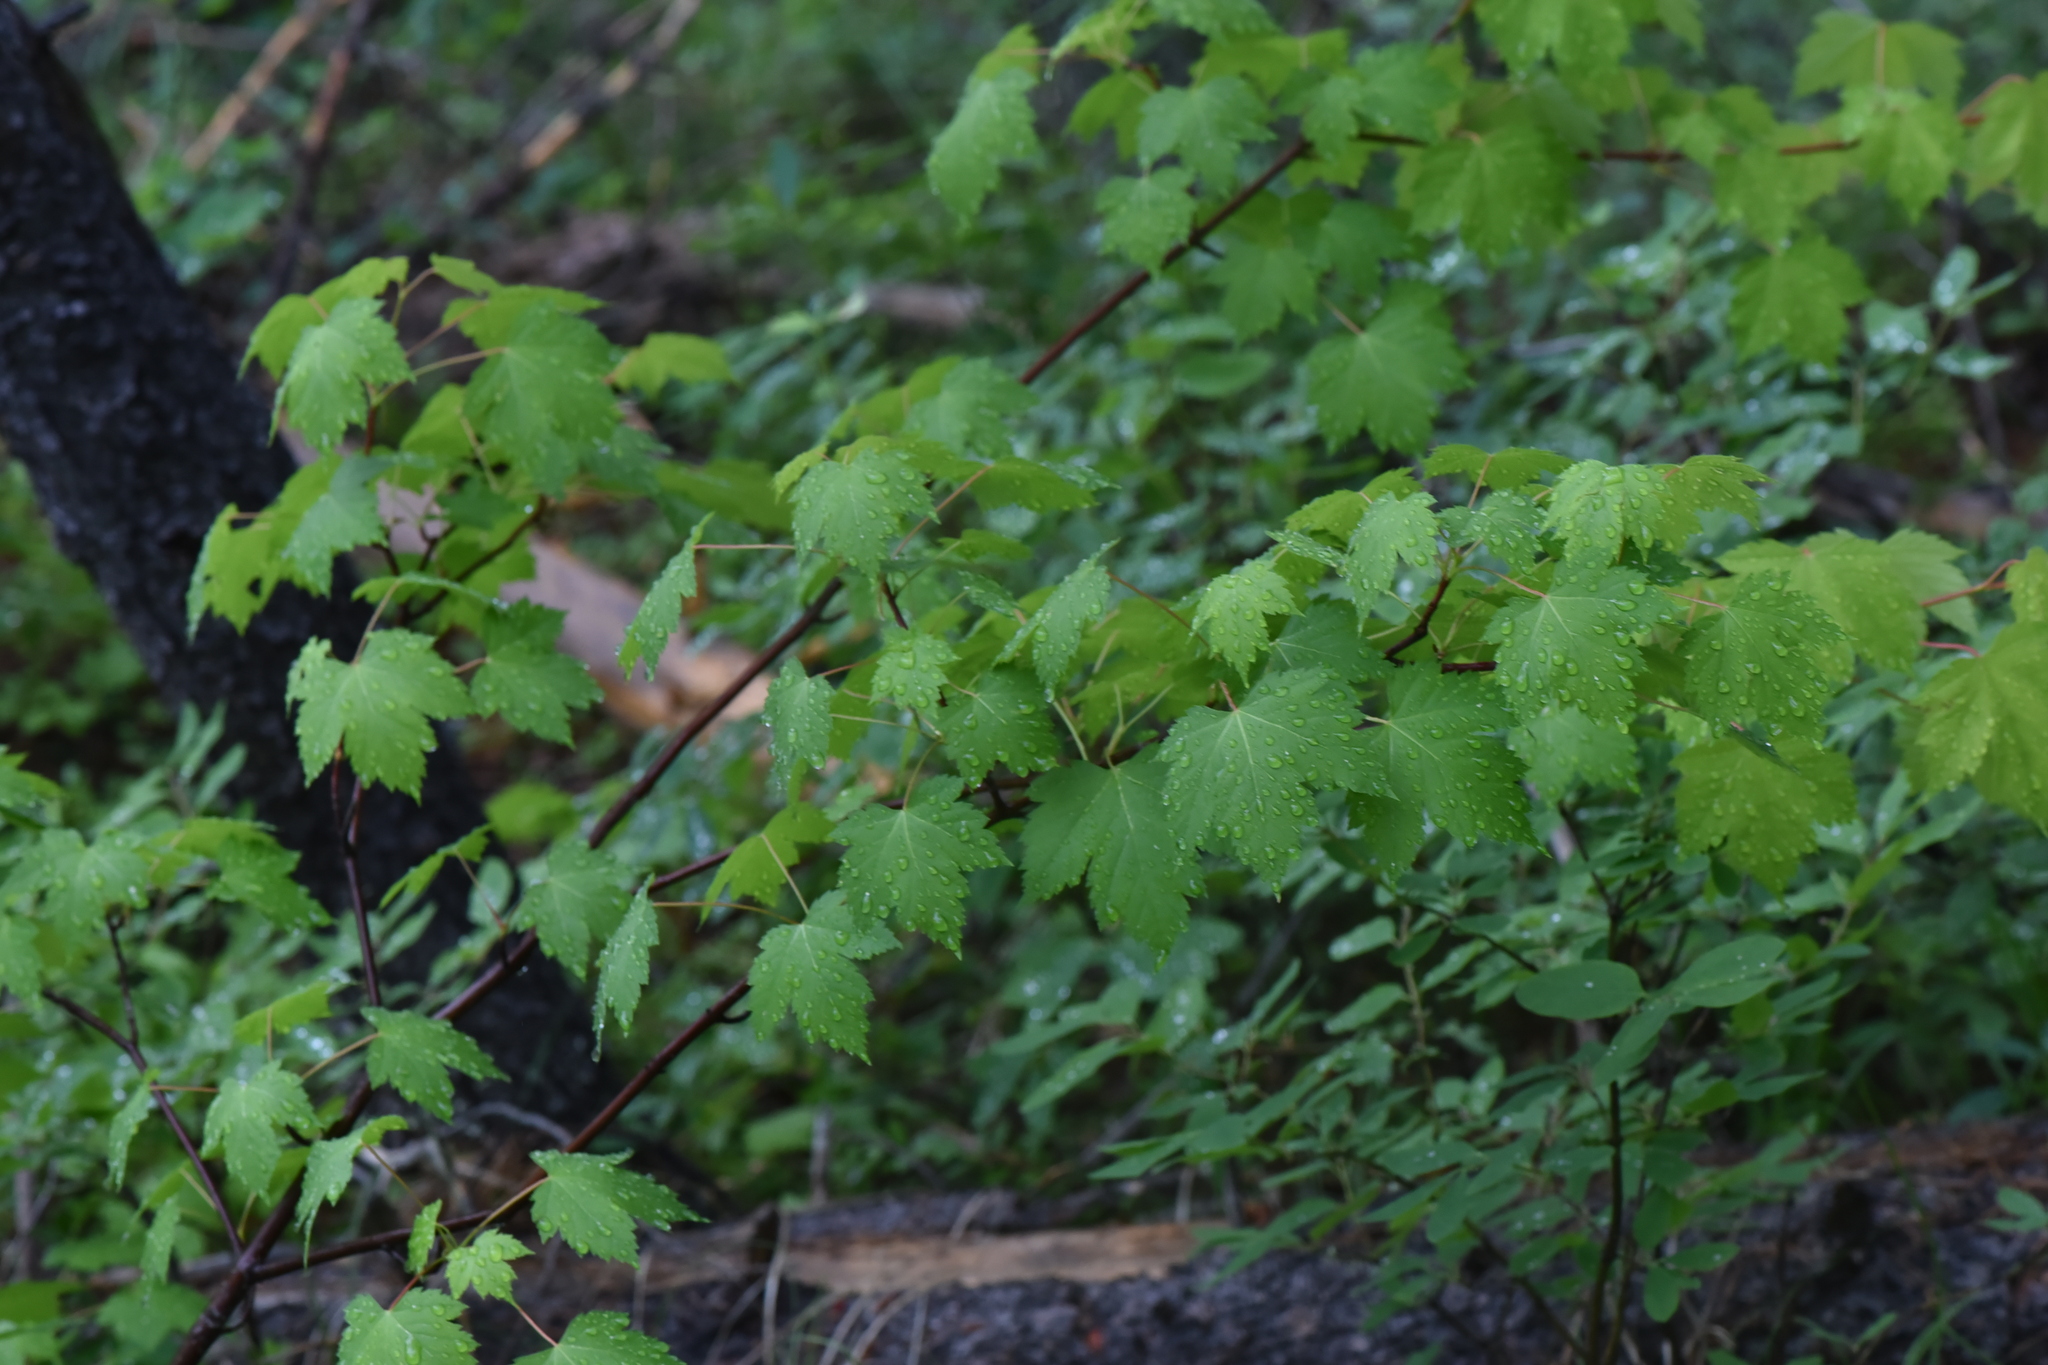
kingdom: Plantae
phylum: Tracheophyta
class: Magnoliopsida
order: Sapindales
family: Sapindaceae
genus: Acer
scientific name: Acer glabrum
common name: Rocky mountain maple
